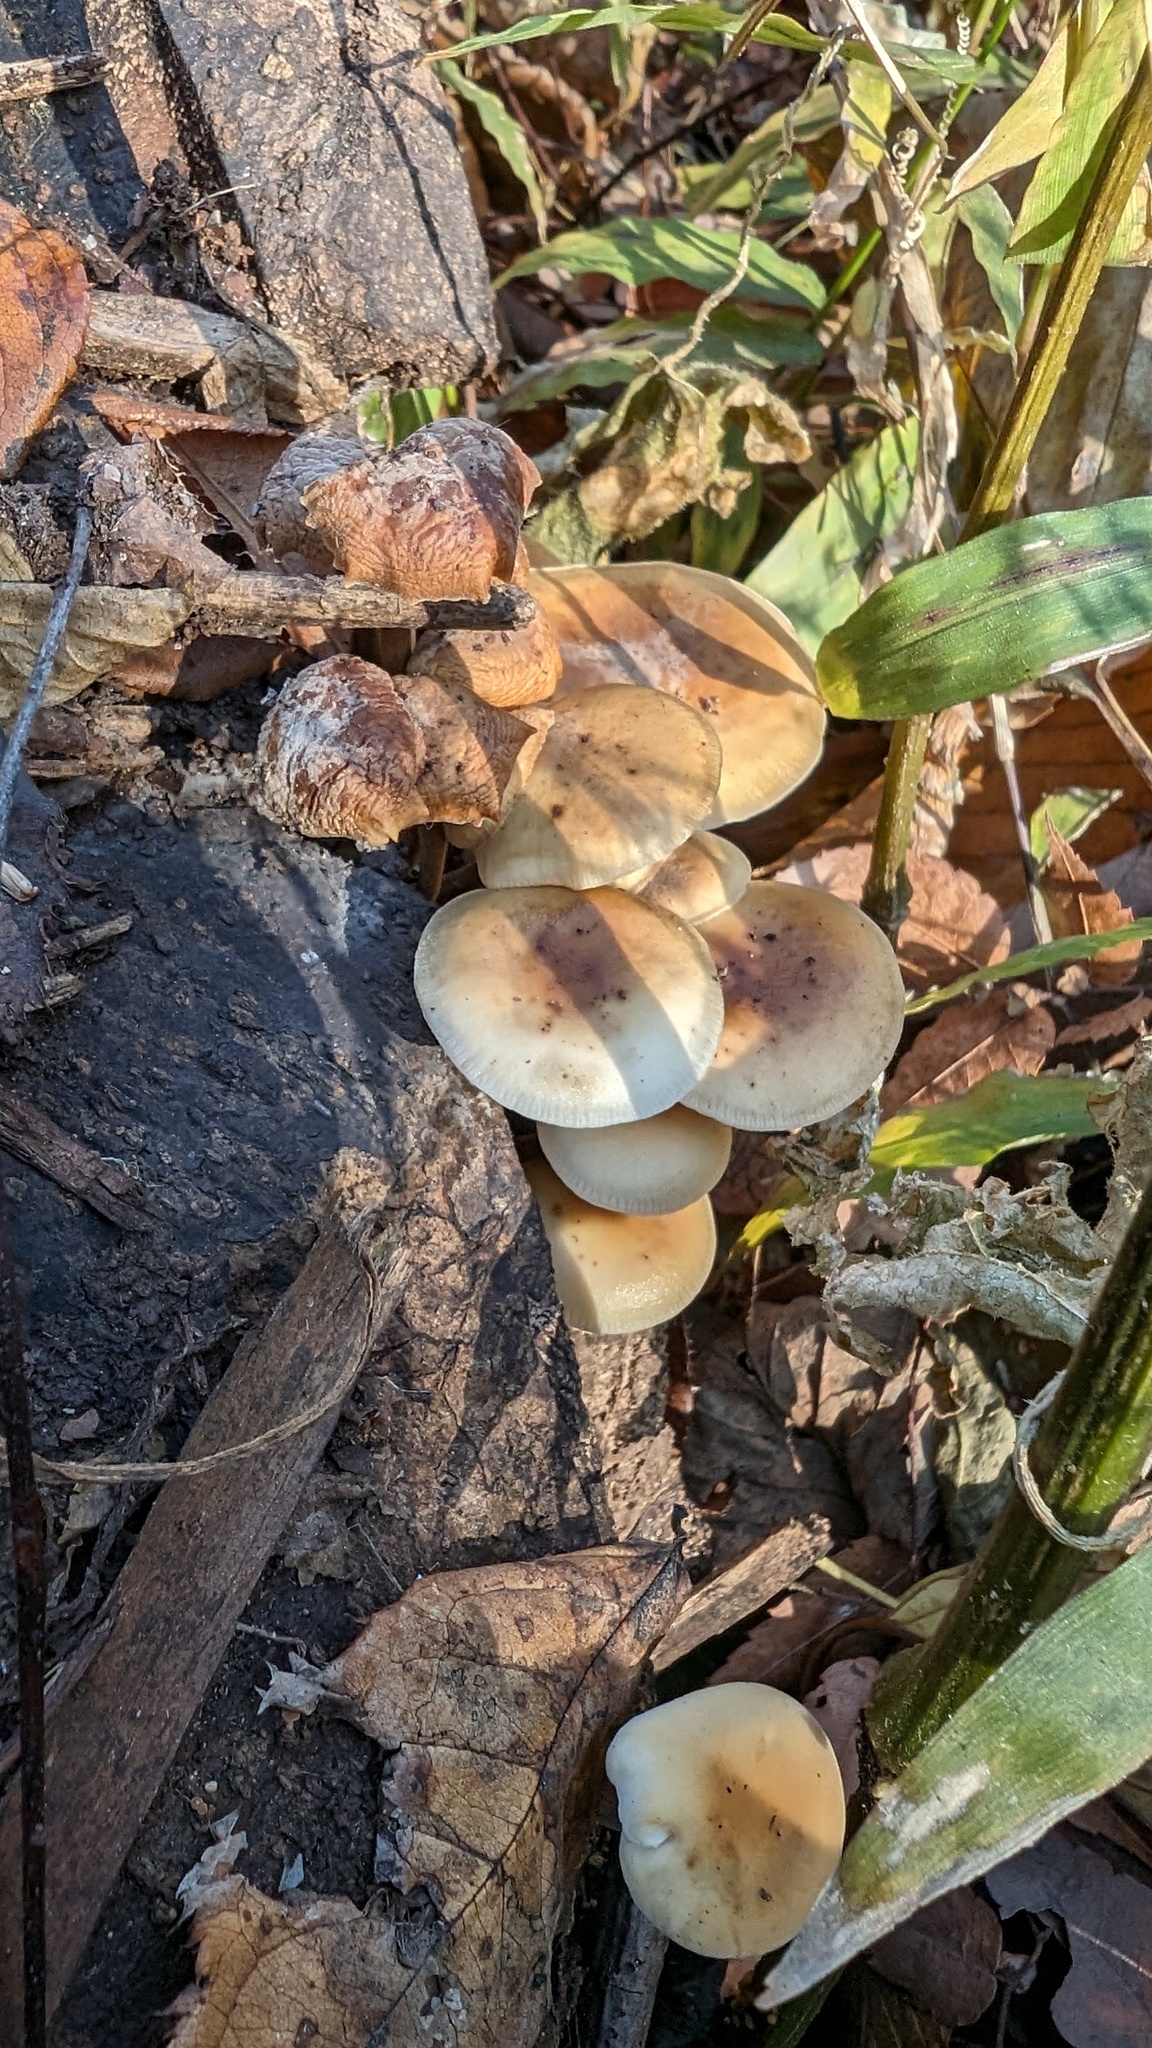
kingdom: Fungi
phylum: Basidiomycota
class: Agaricomycetes
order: Agaricales
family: Physalacriaceae
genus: Flammulina
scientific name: Flammulina velutipes
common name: Velvet shank
